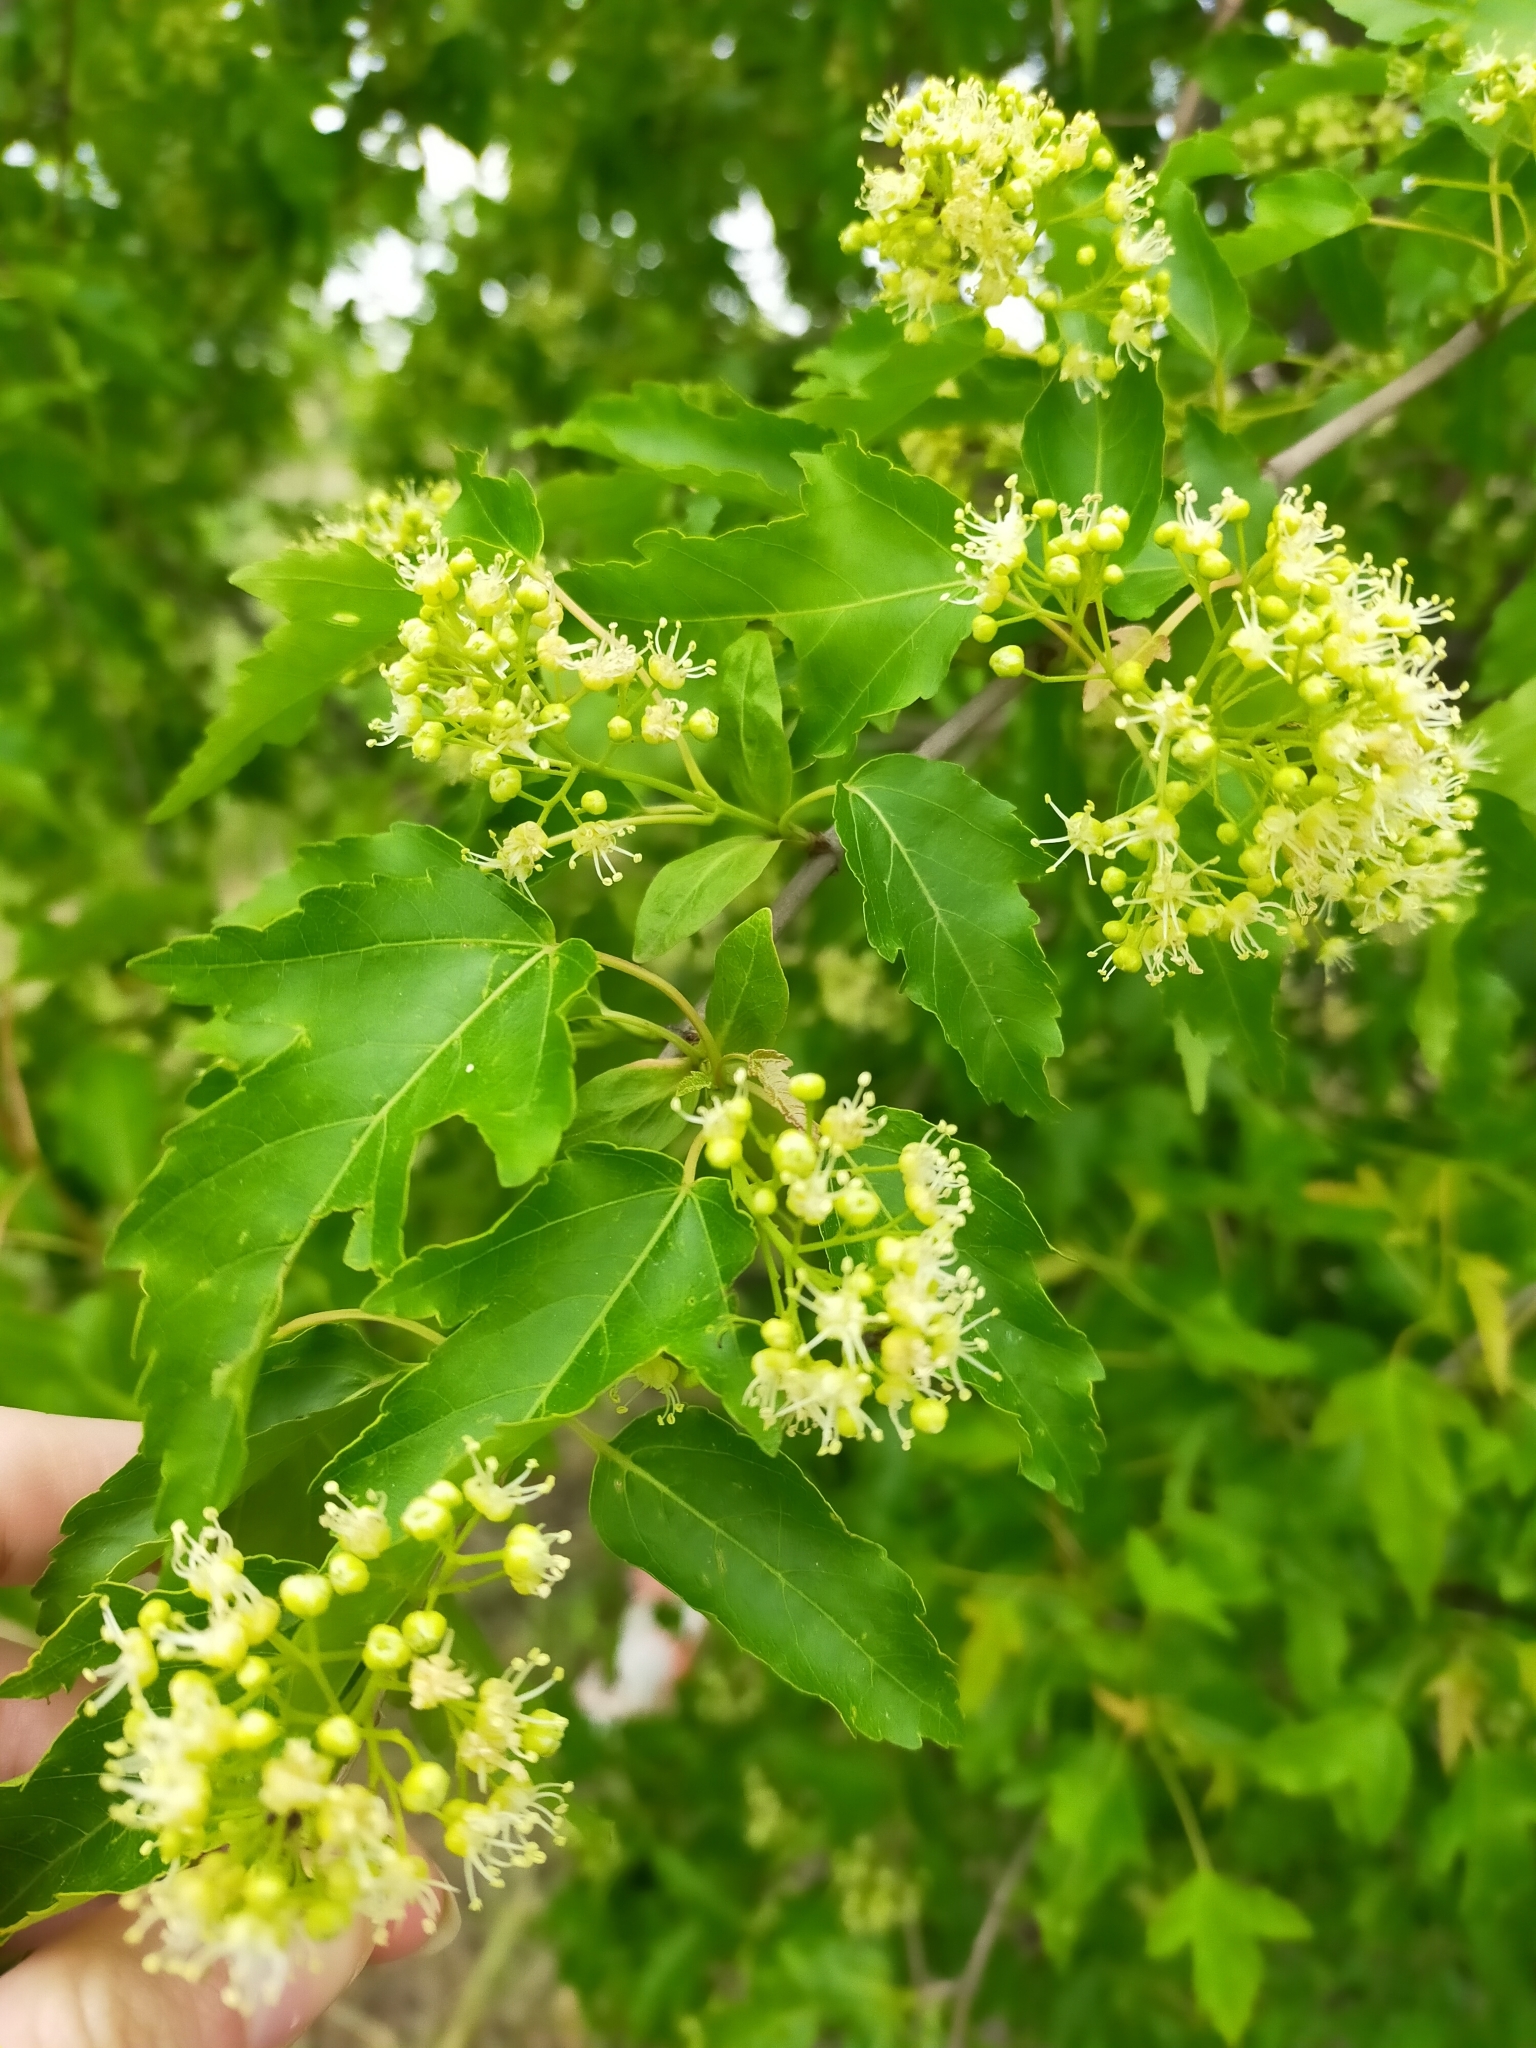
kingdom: Plantae
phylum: Tracheophyta
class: Magnoliopsida
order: Sapindales
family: Sapindaceae
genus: Acer
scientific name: Acer tataricum
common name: Tartar maple
